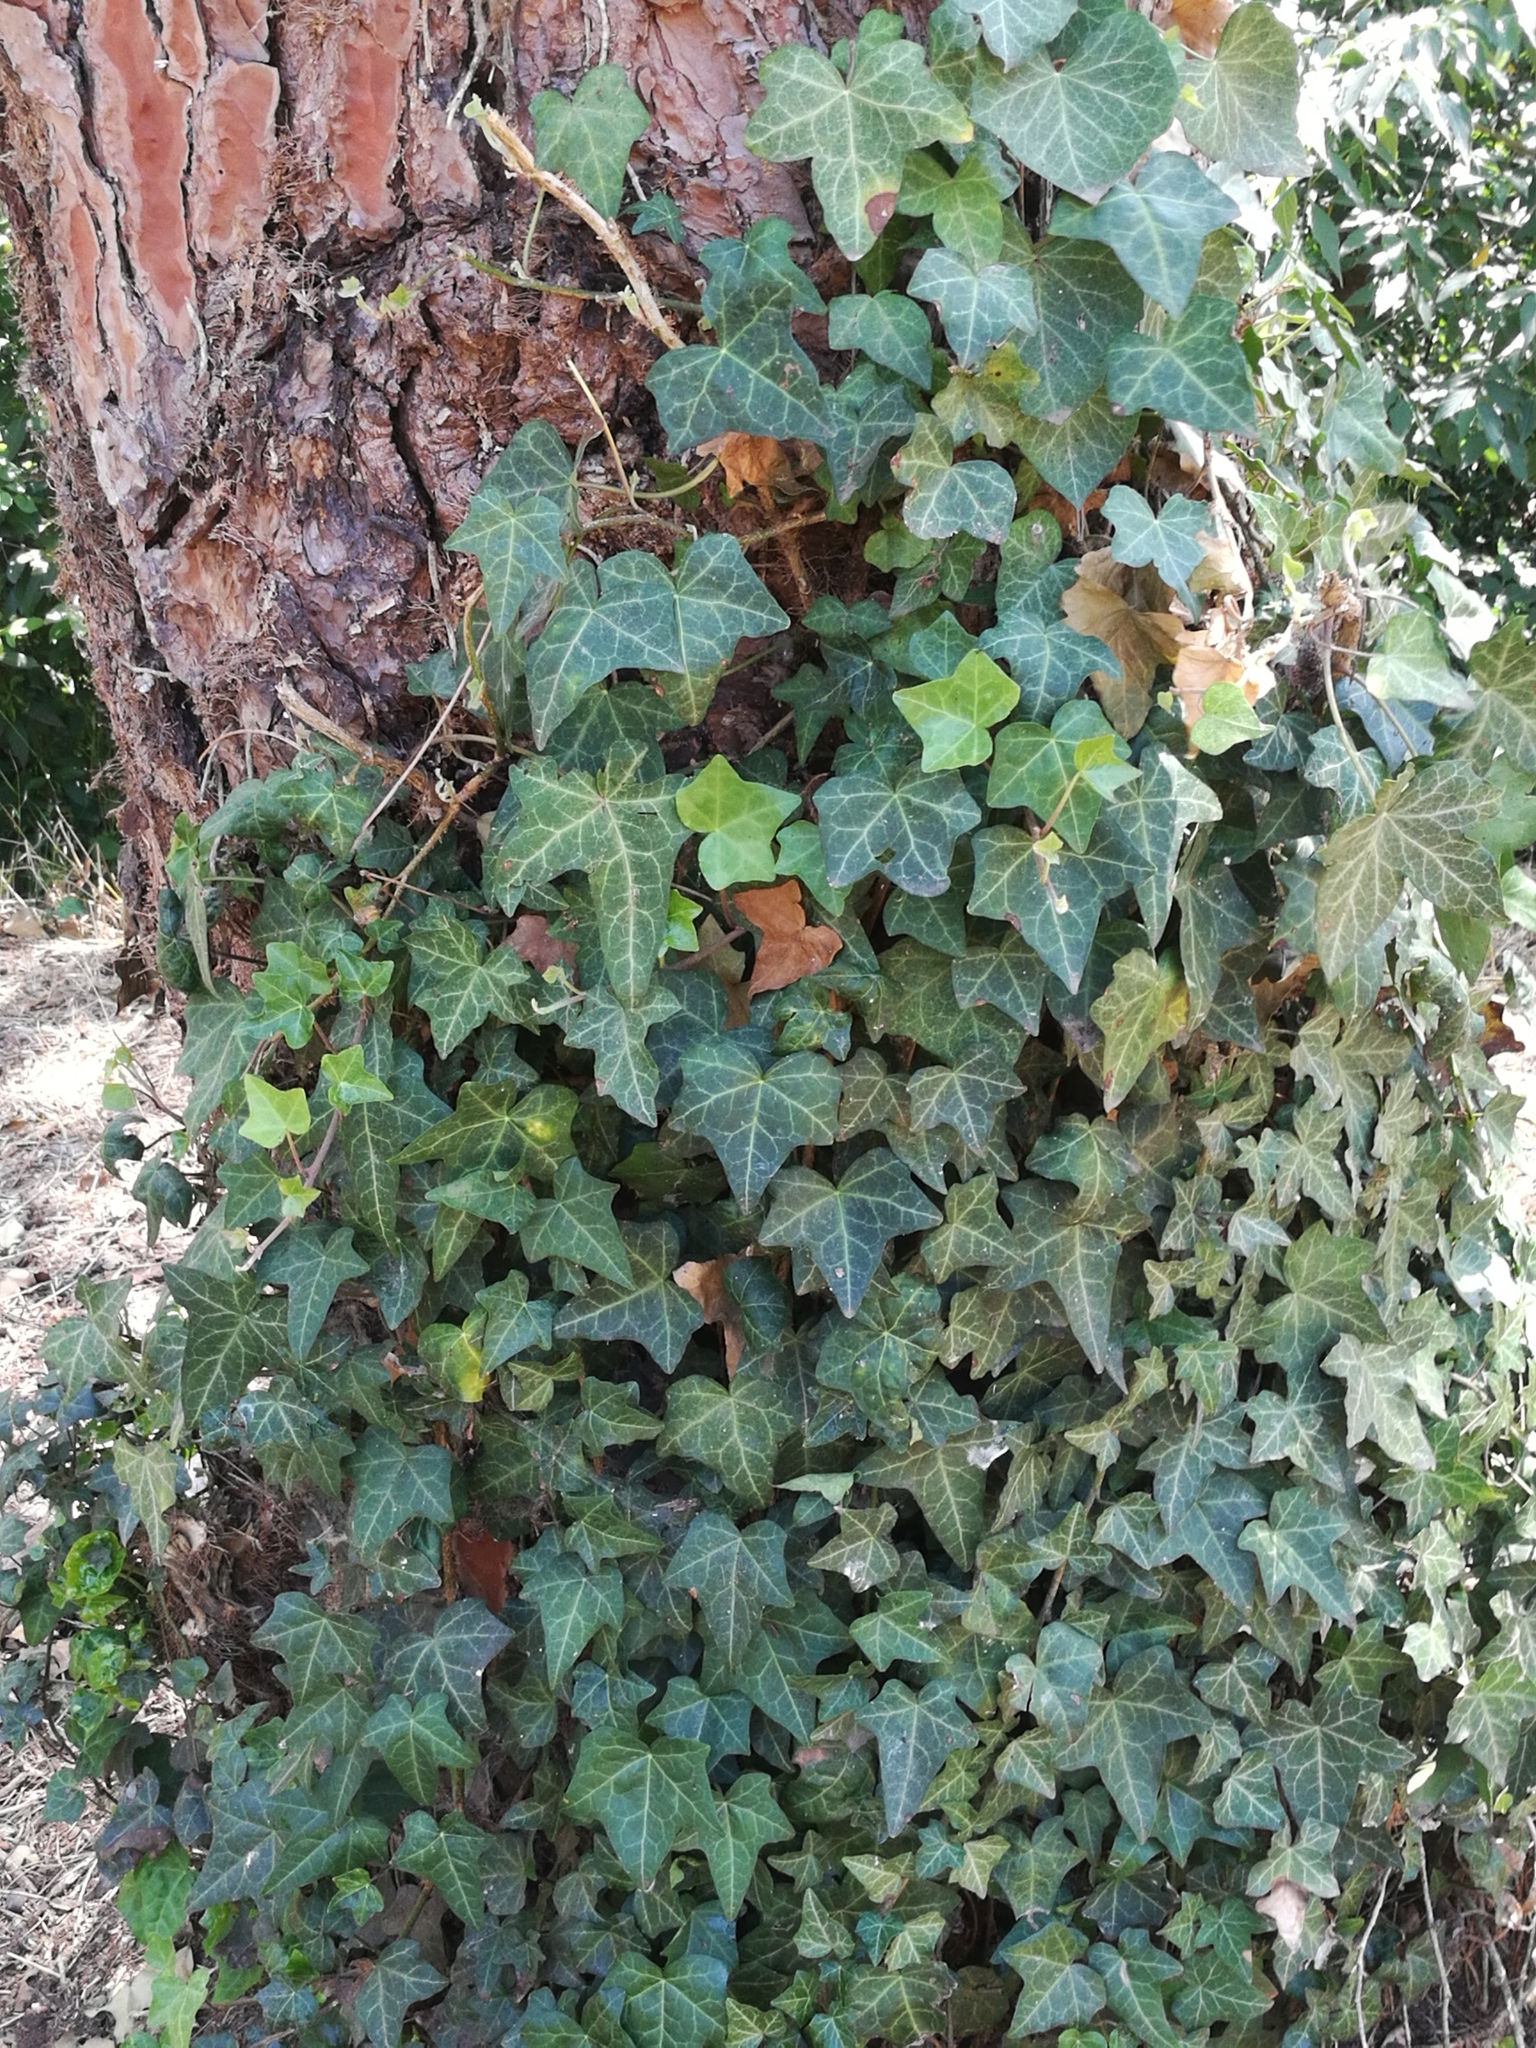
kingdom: Plantae
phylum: Tracheophyta
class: Magnoliopsida
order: Apiales
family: Araliaceae
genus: Hedera
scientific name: Hedera helix
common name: Ivy
